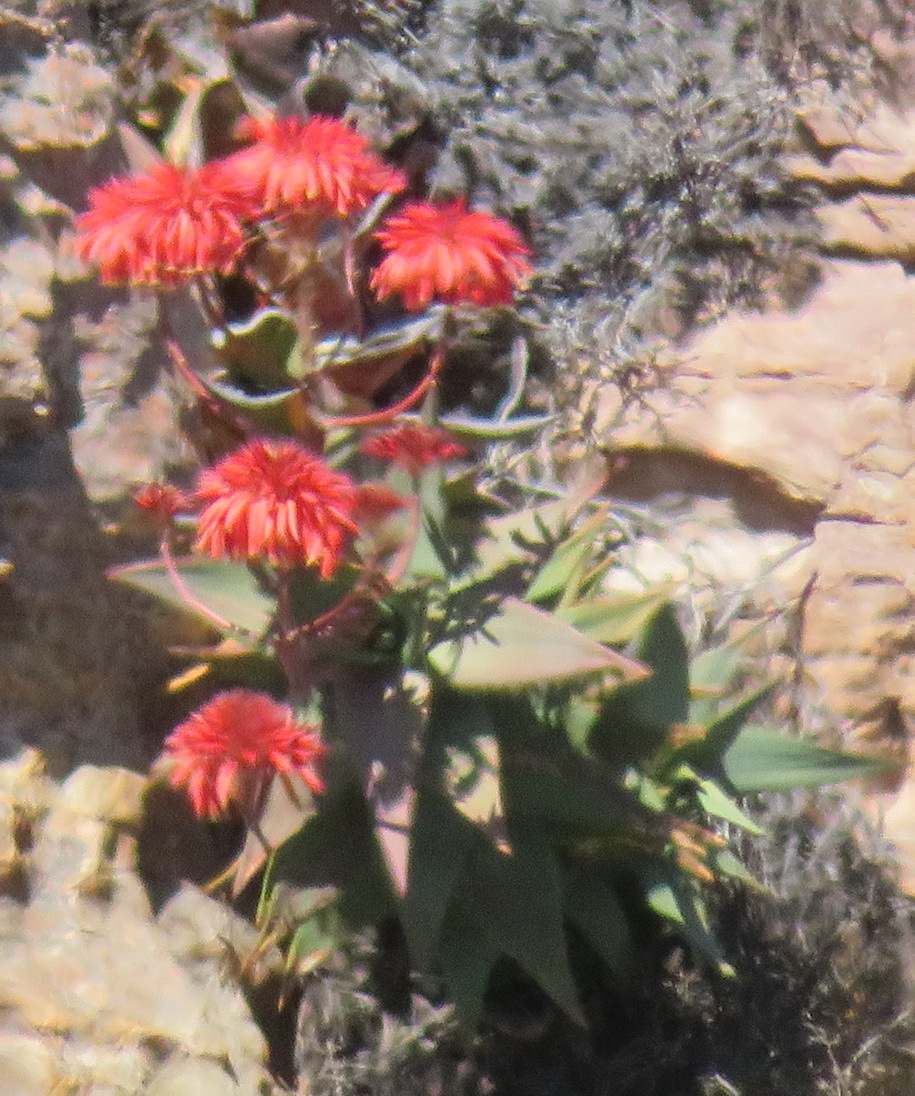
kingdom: Plantae
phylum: Tracheophyta
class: Liliopsida
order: Asparagales
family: Asphodelaceae
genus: Aloe
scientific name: Aloe perfoliata
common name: Mitra aloe
